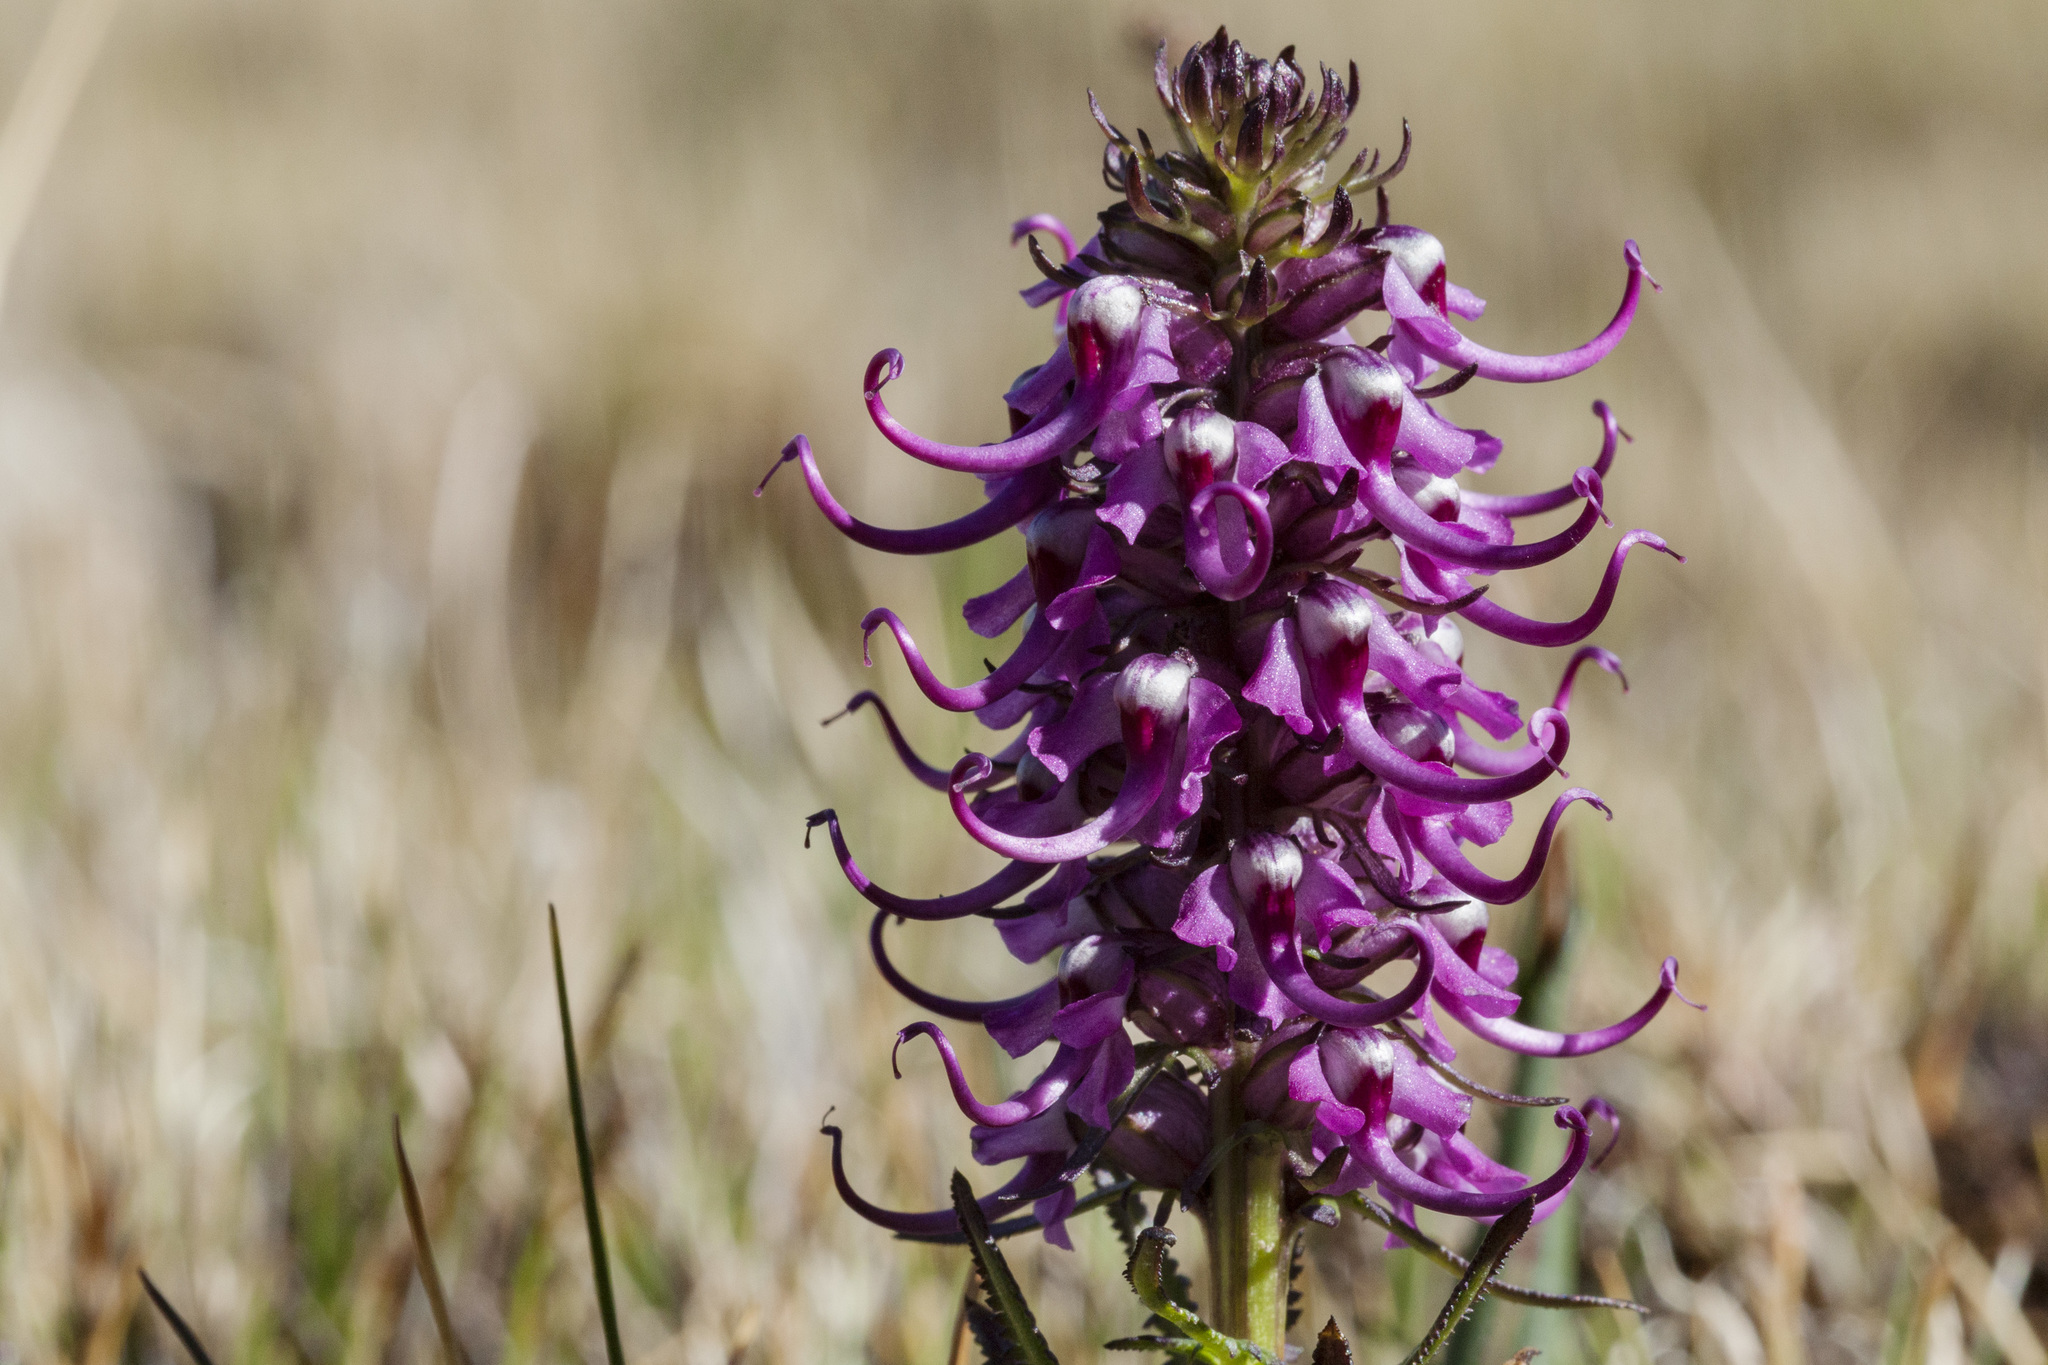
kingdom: Plantae
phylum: Tracheophyta
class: Magnoliopsida
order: Lamiales
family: Orobanchaceae
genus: Pedicularis
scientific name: Pedicularis groenlandica
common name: Elephant's-head
